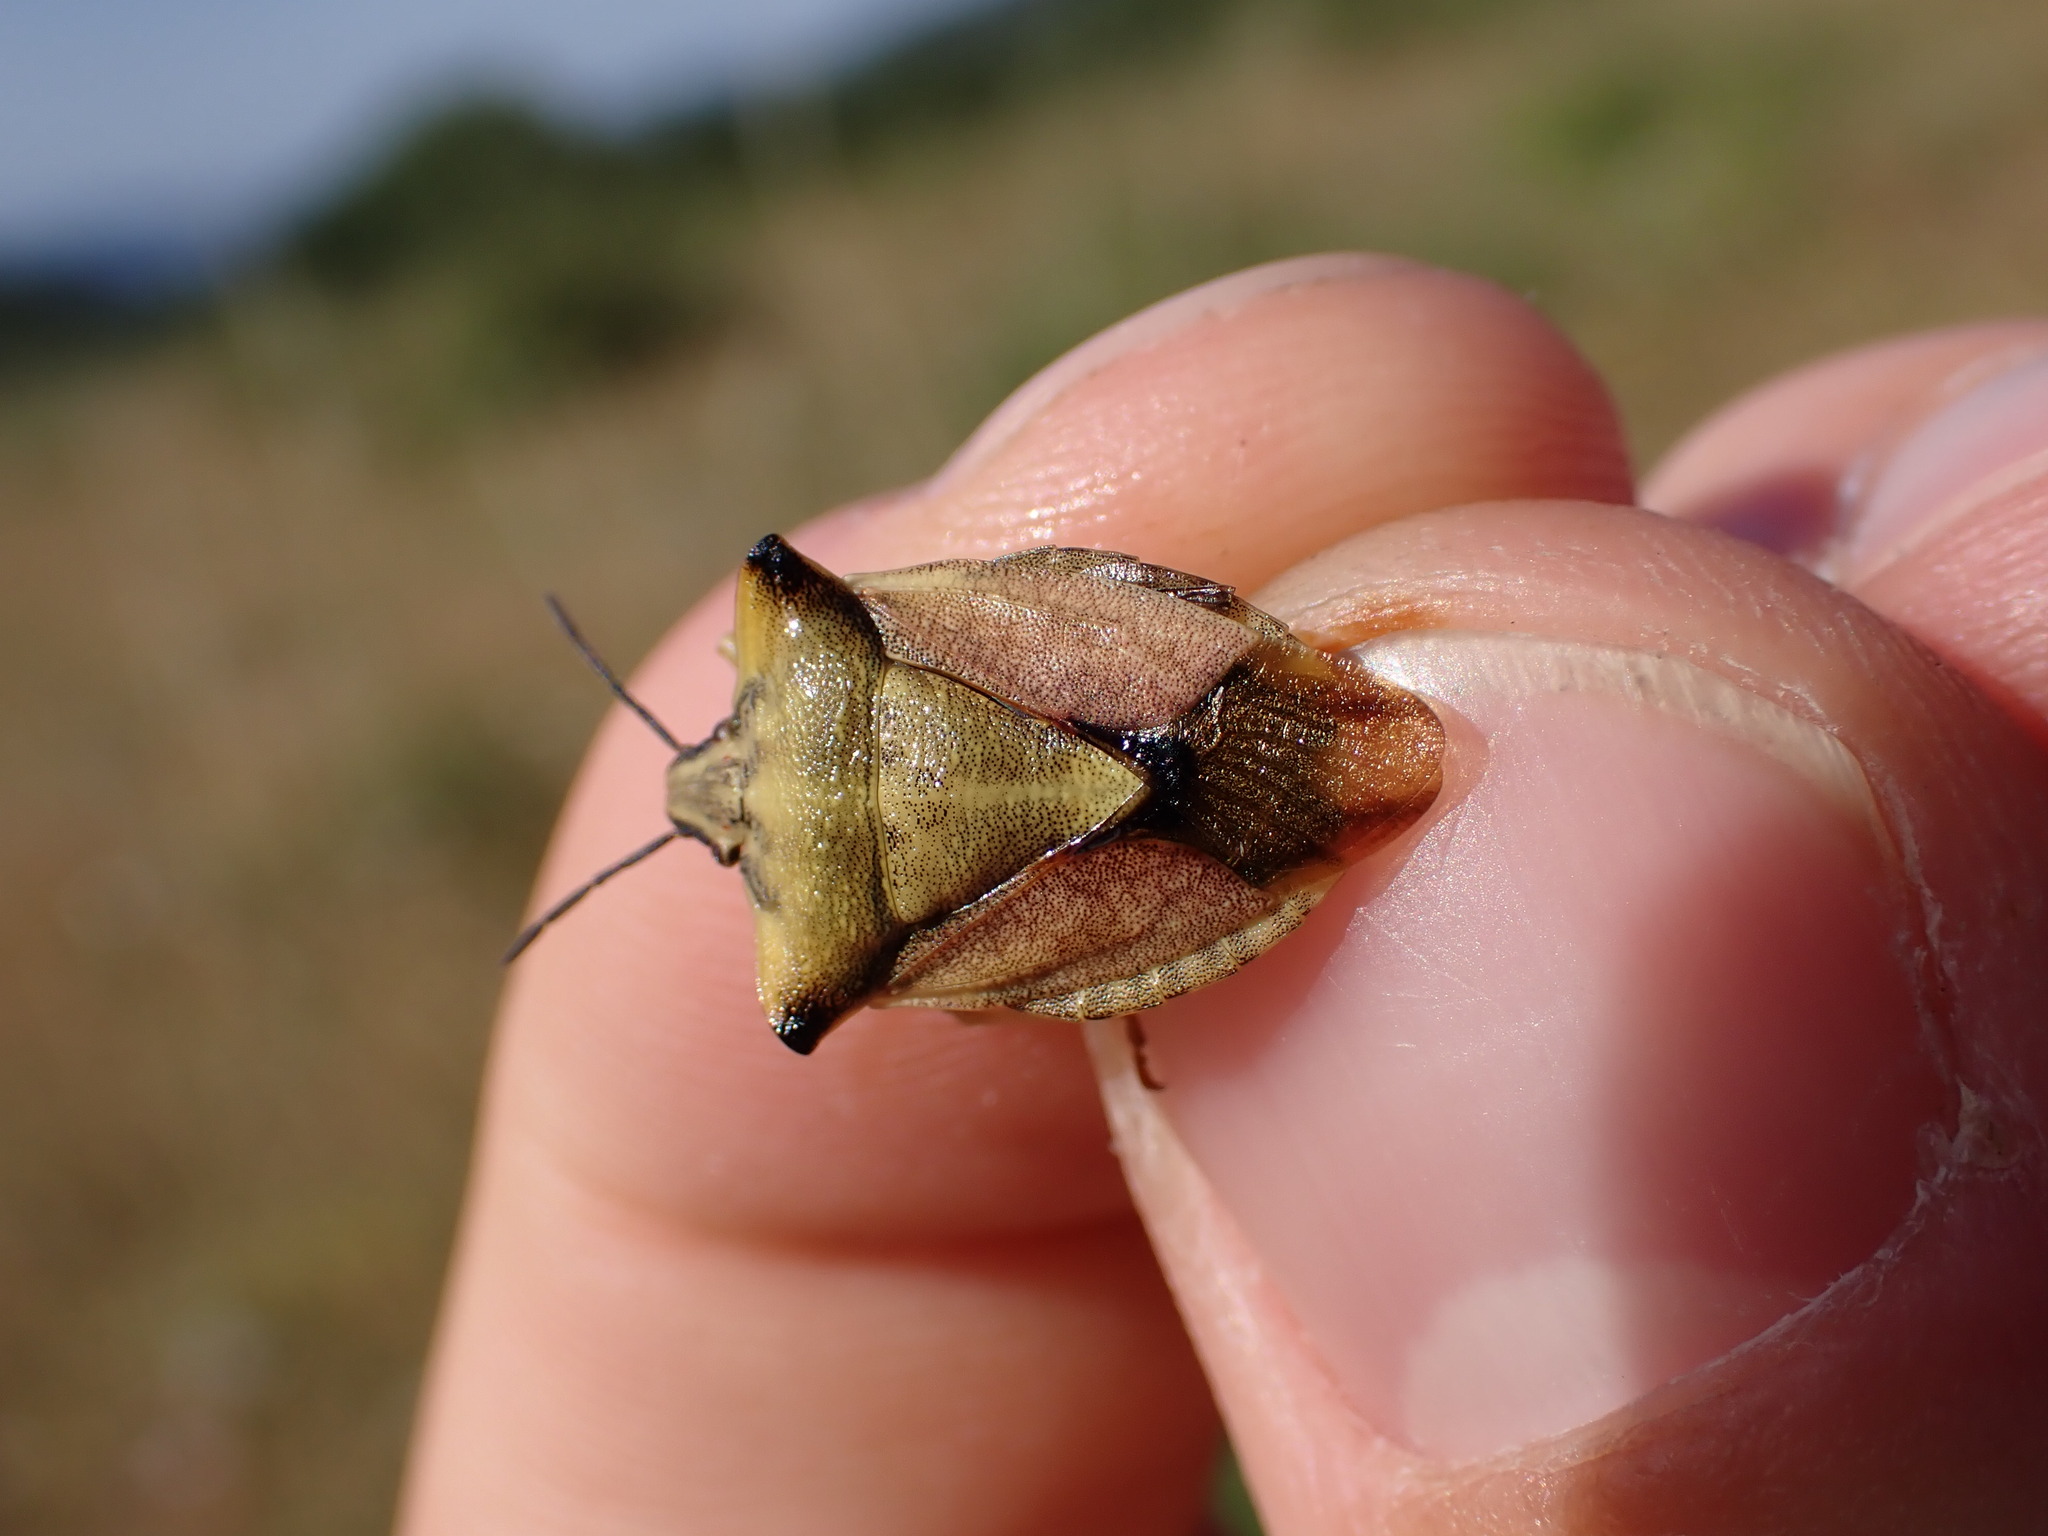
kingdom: Animalia
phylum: Arthropoda
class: Insecta
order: Hemiptera
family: Pentatomidae
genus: Carpocoris
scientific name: Carpocoris fuscispinus
